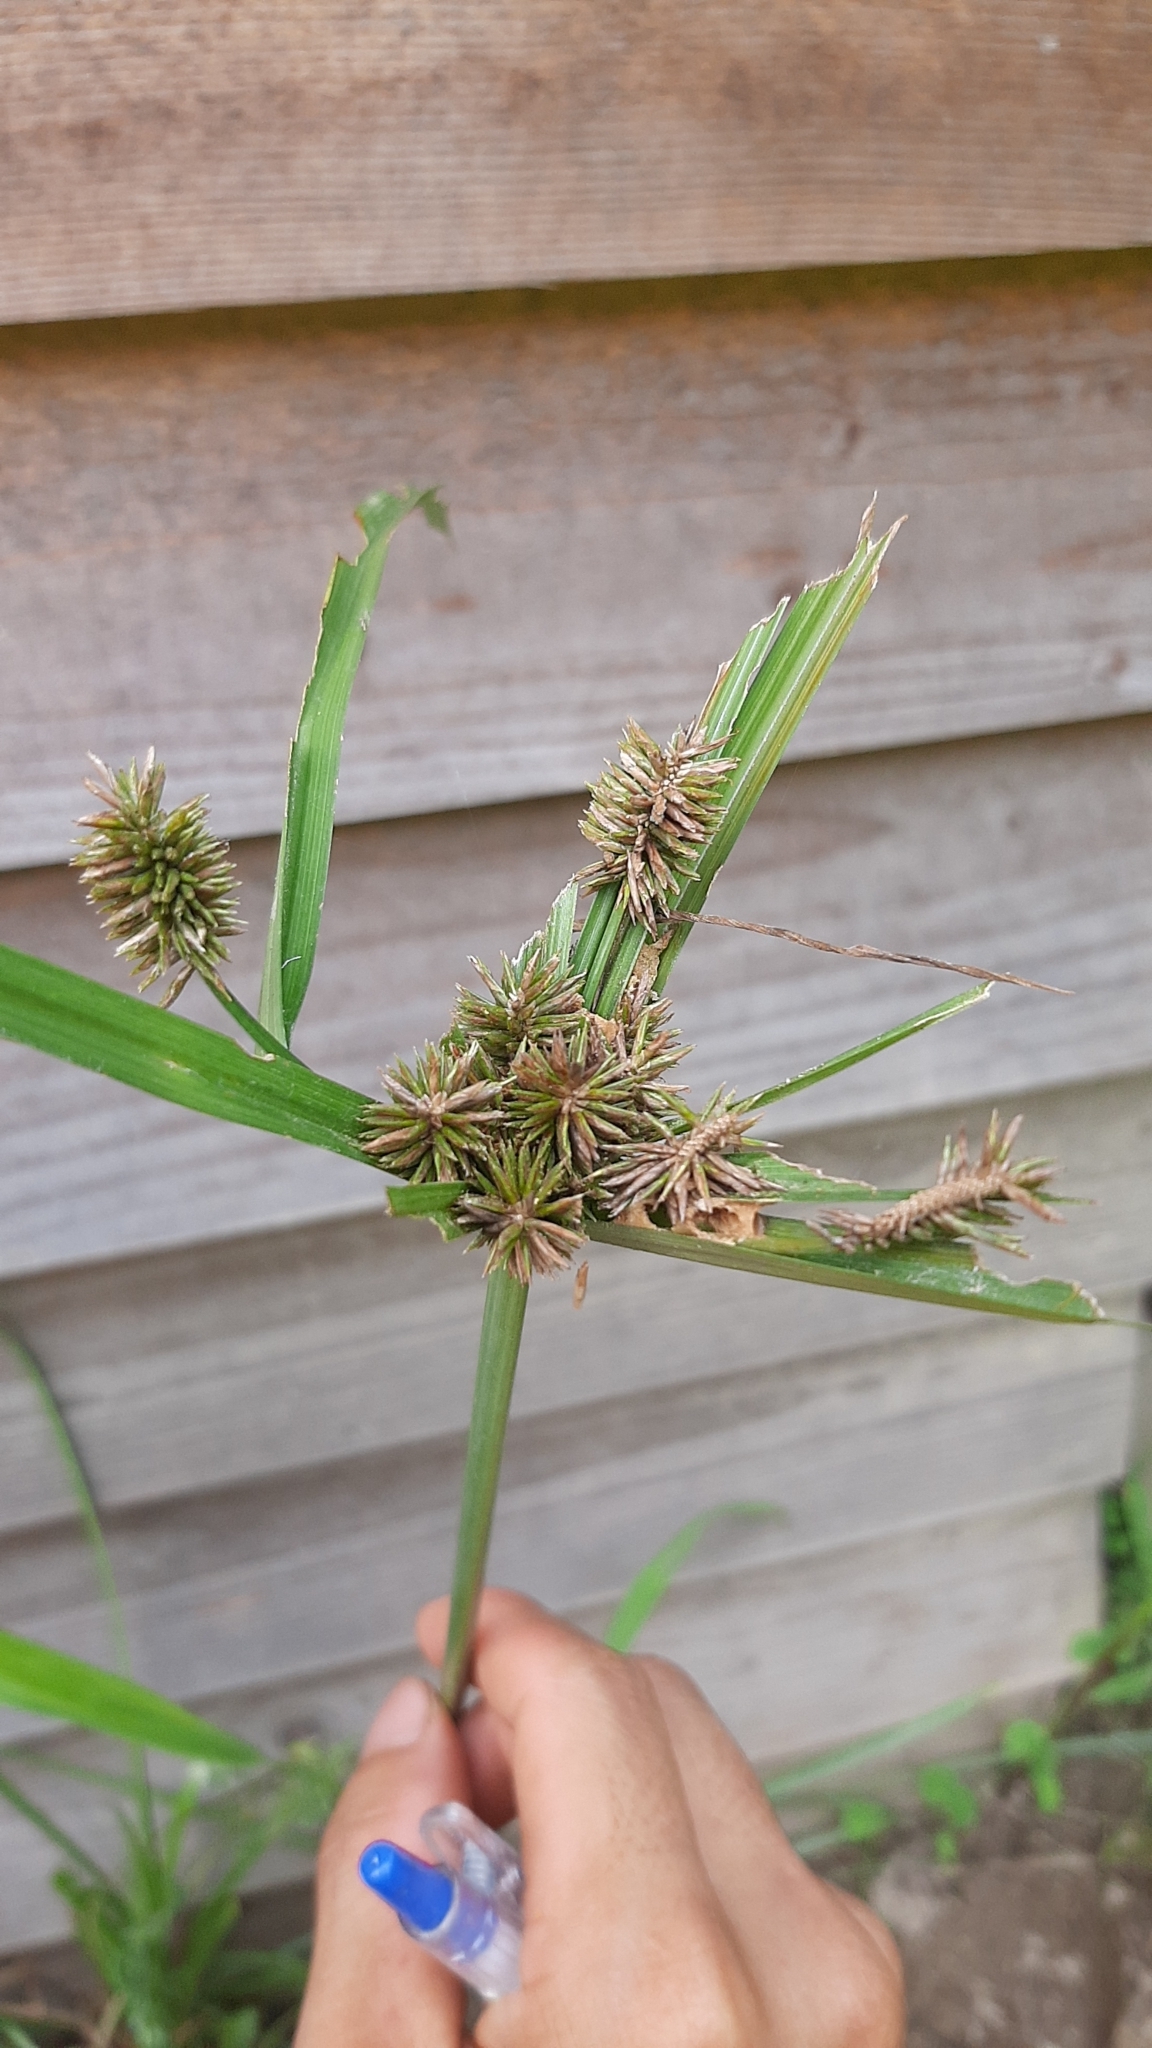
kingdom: Plantae
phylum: Tracheophyta
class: Liliopsida
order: Poales
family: Cyperaceae
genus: Cyperus
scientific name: Cyperus cyperoides
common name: Pacific island flat sedge
